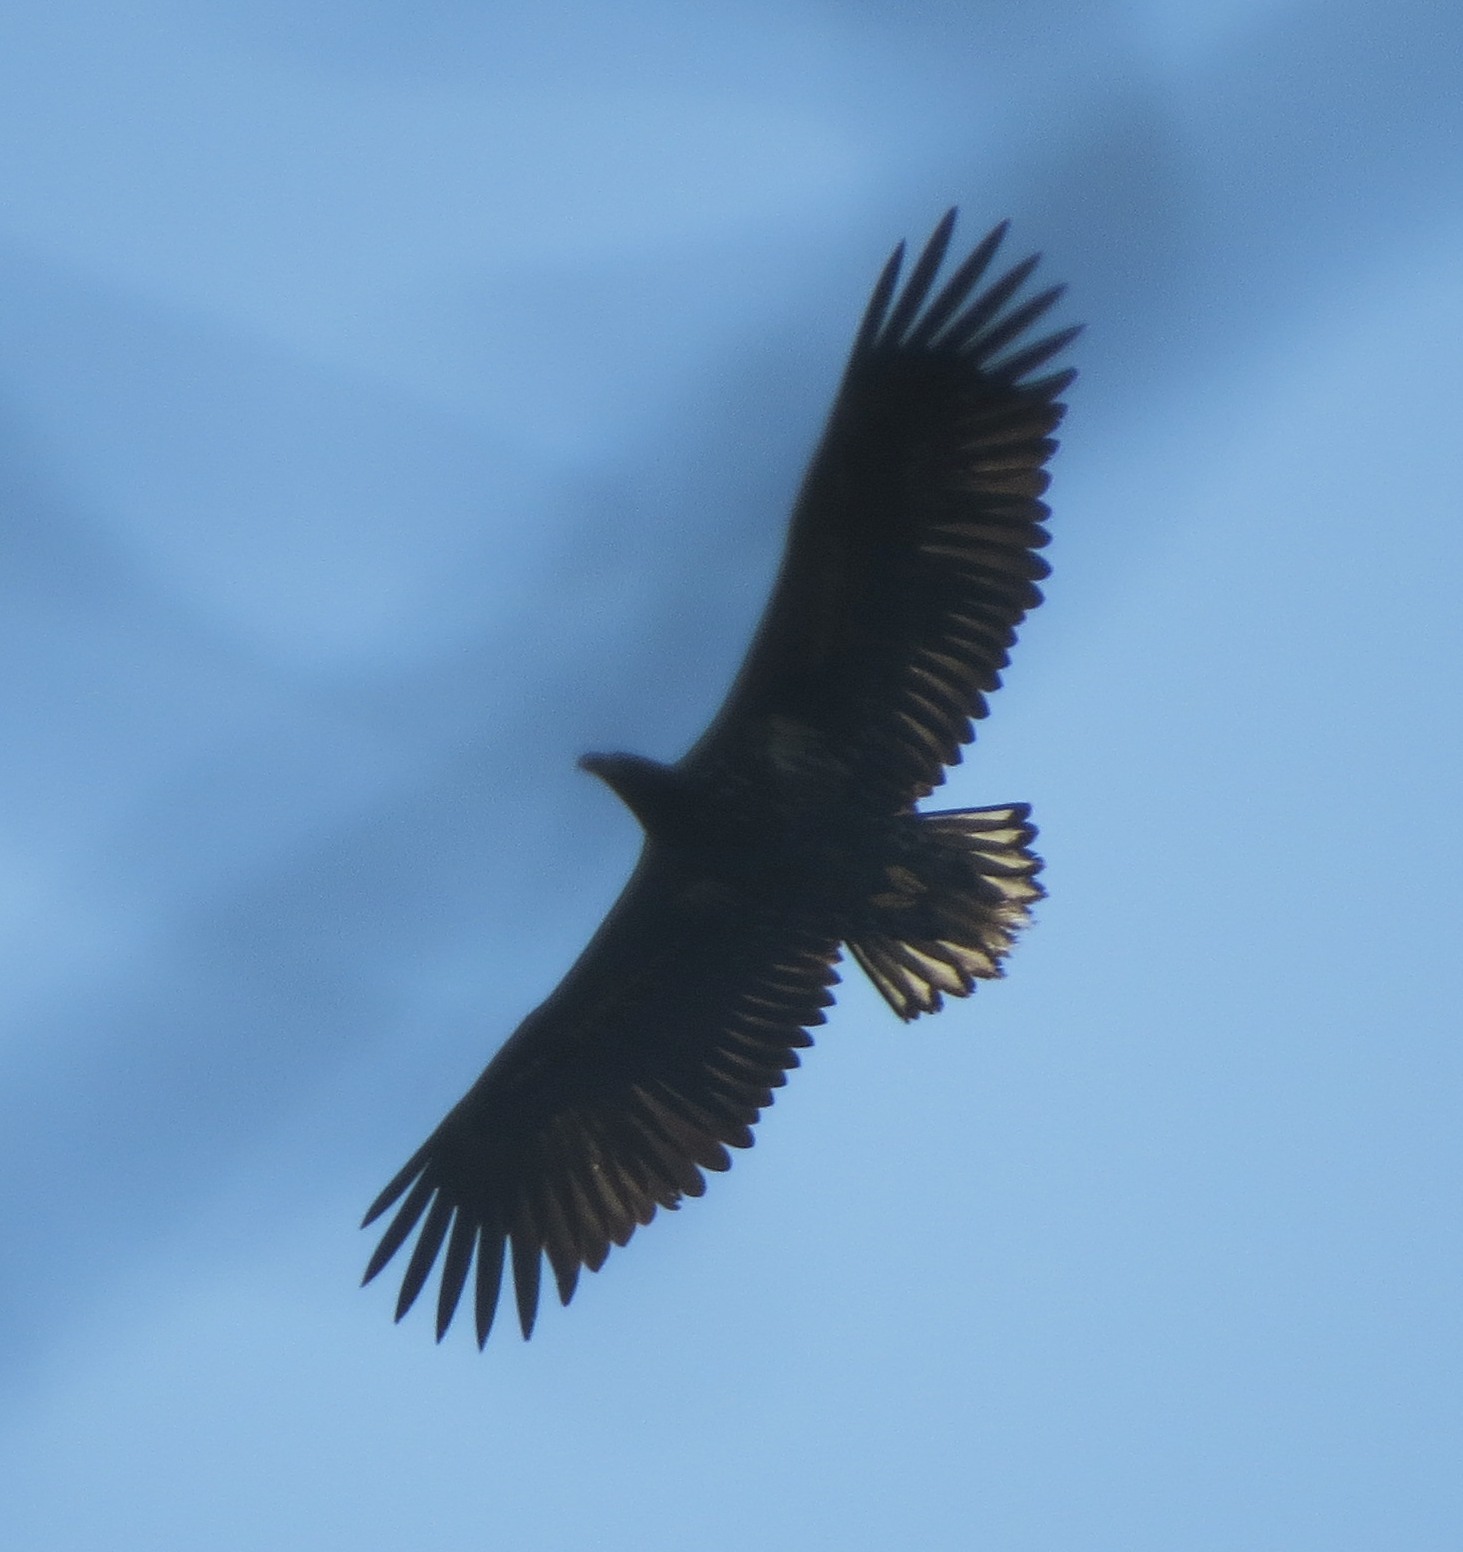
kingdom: Animalia
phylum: Chordata
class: Aves
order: Accipitriformes
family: Accipitridae
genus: Haliaeetus
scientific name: Haliaeetus albicilla
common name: White-tailed eagle
